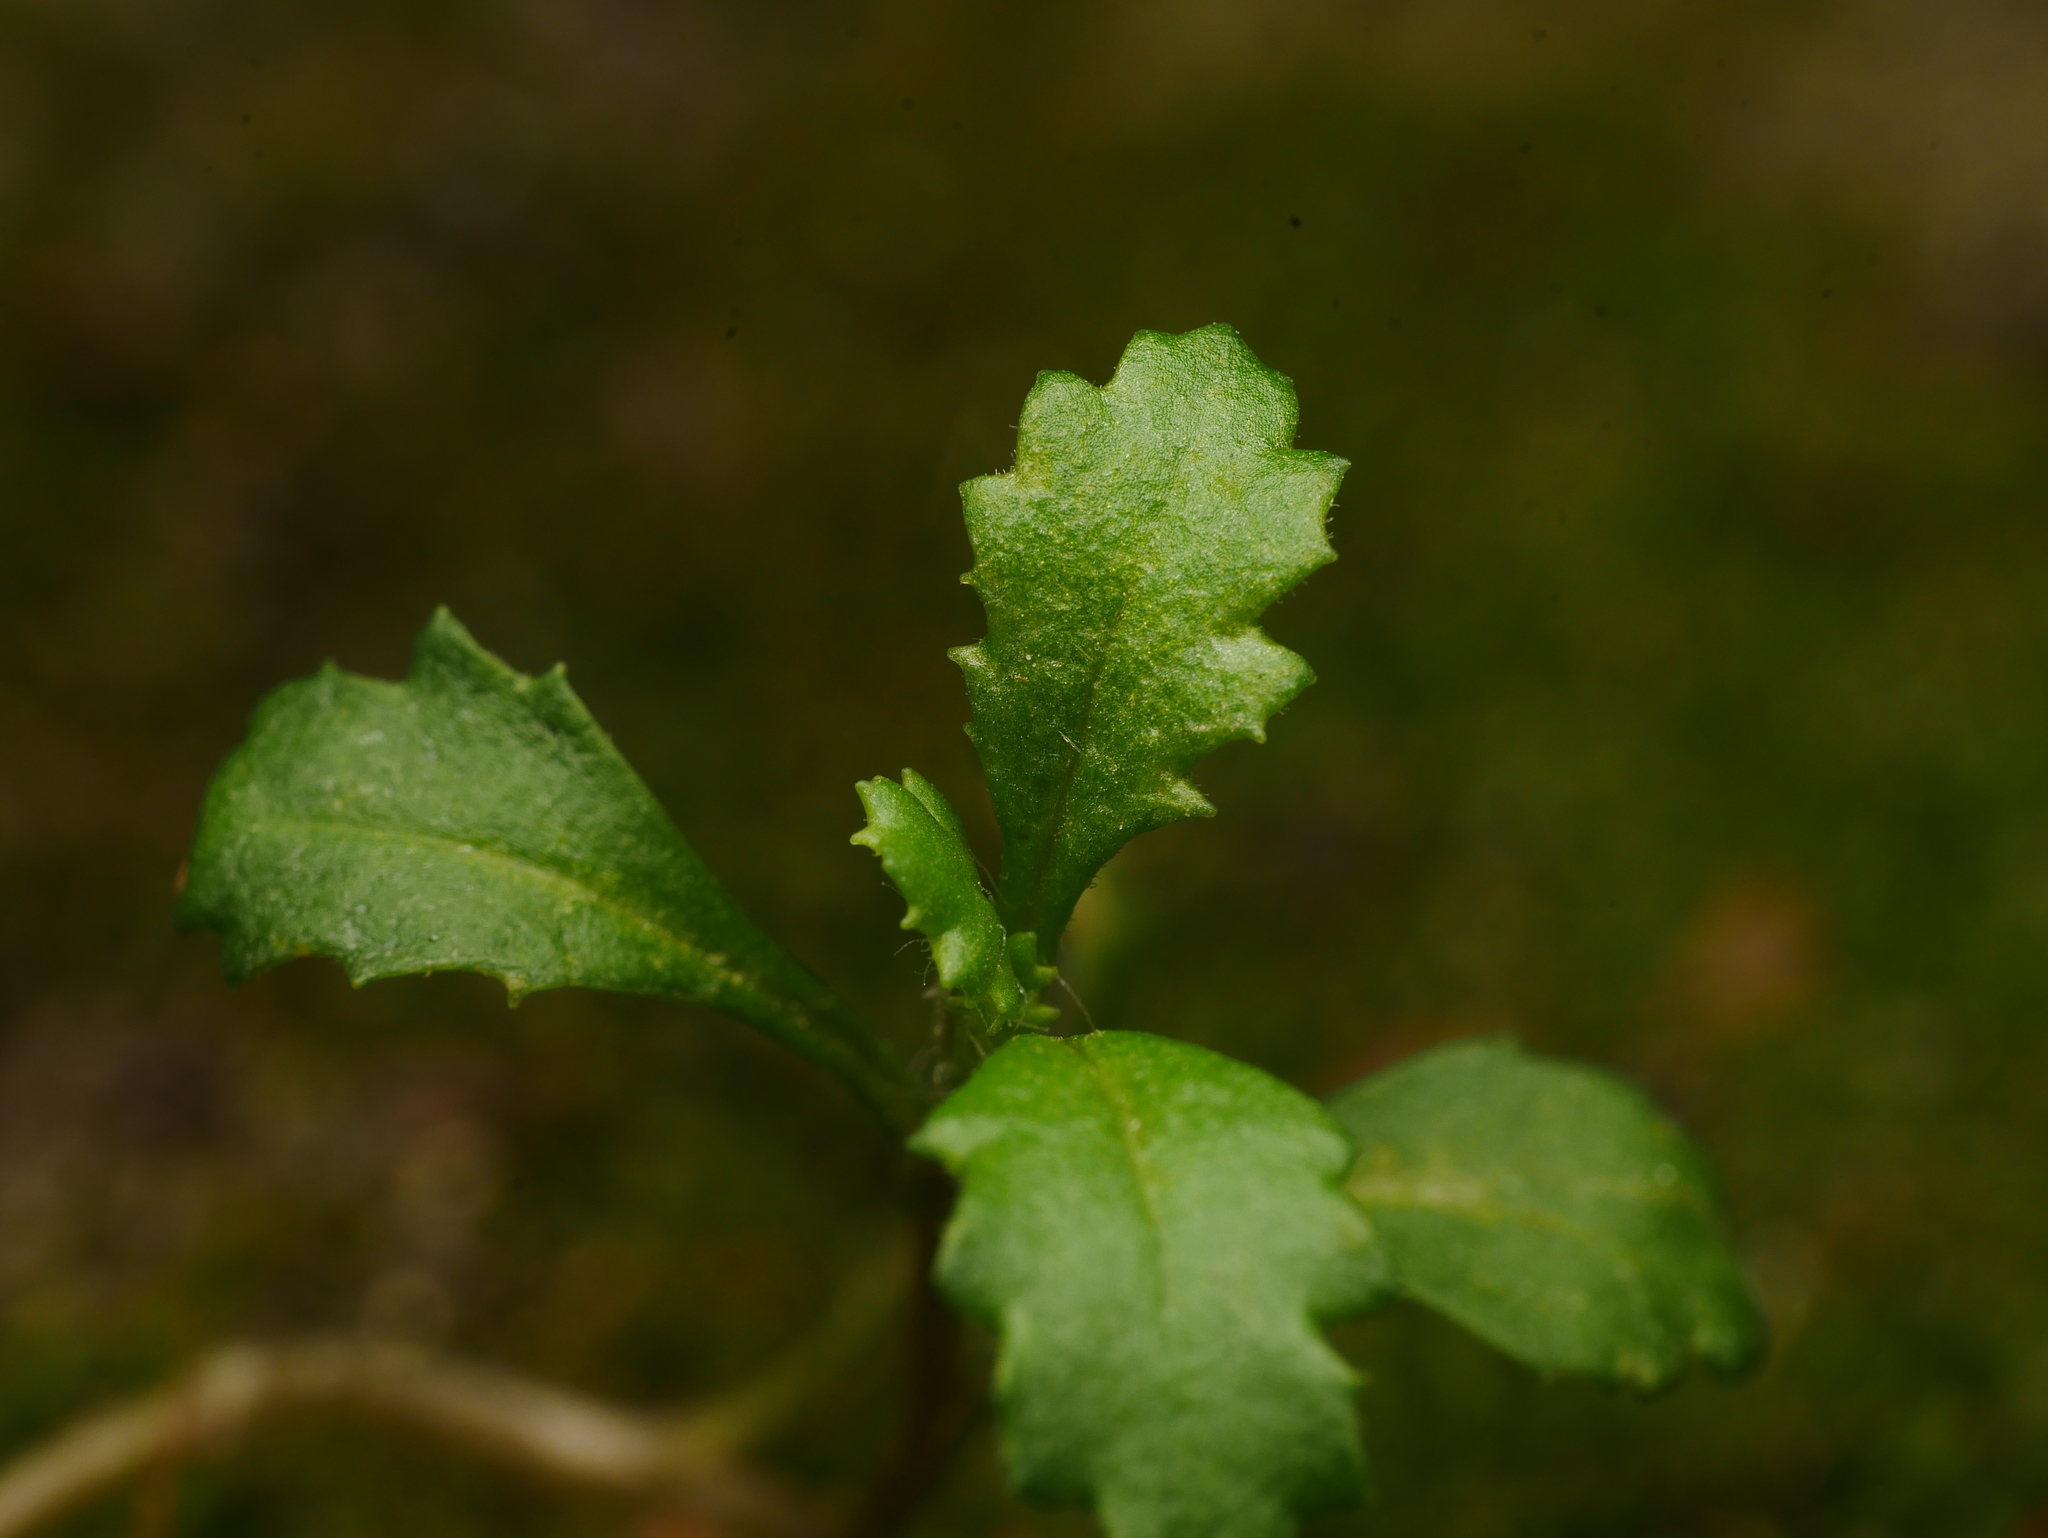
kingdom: Plantae
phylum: Tracheophyta
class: Magnoliopsida
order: Asterales
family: Asteraceae
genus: Senecio
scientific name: Senecio vulgaris
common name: Old-man-in-the-spring
